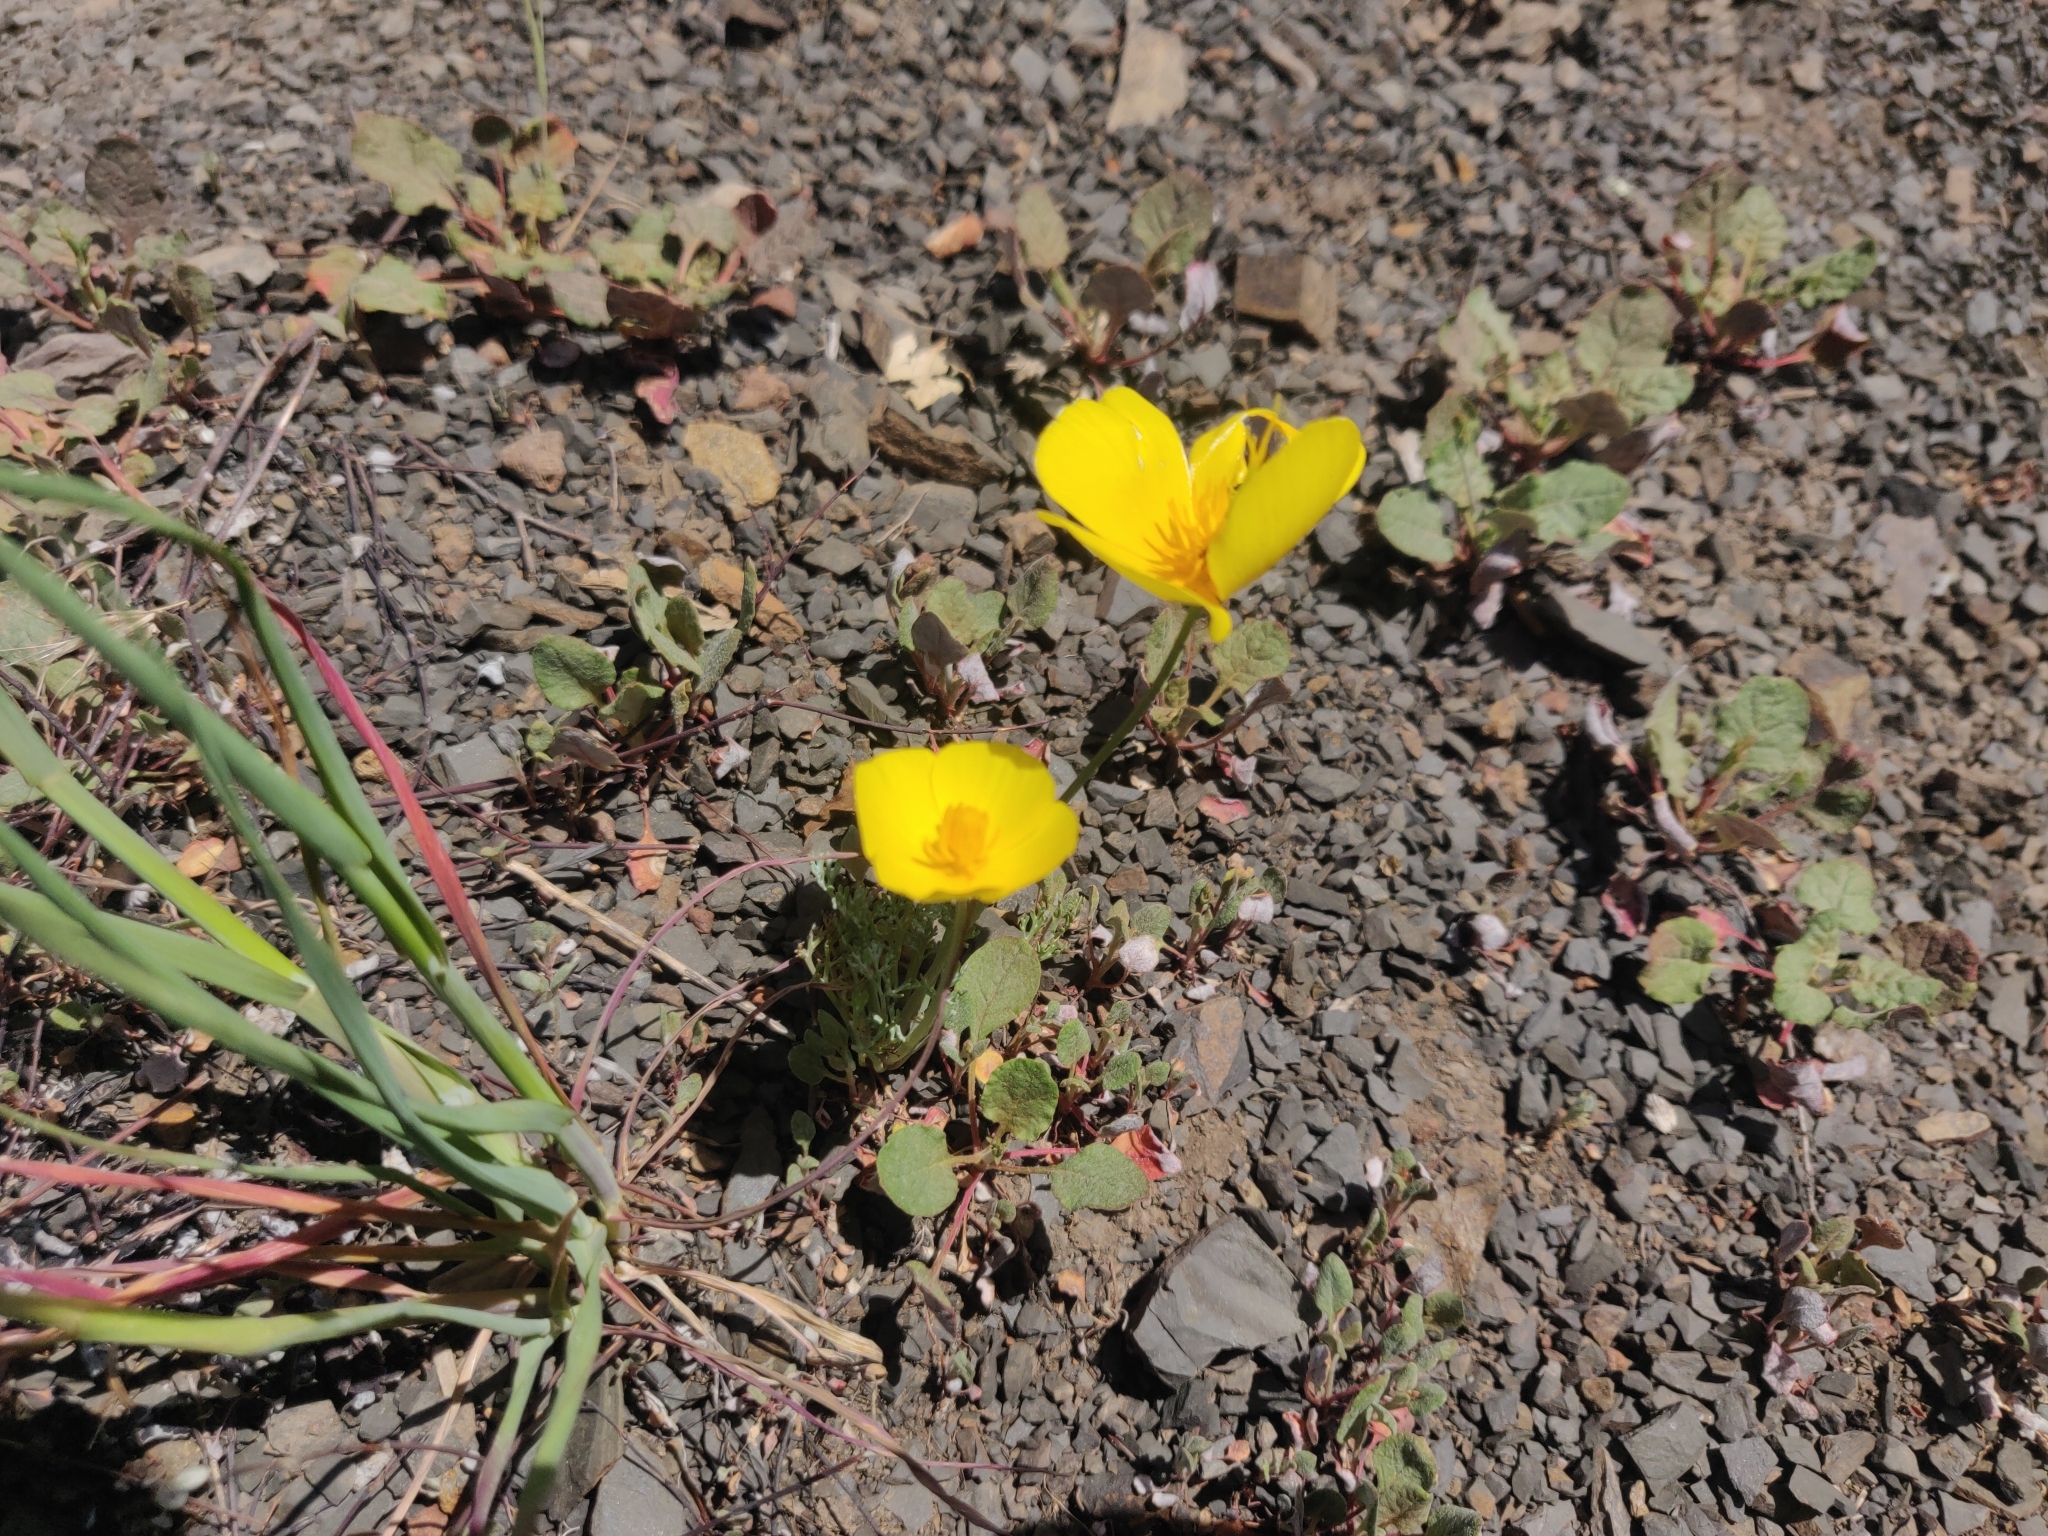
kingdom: Plantae
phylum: Tracheophyta
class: Magnoliopsida
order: Ranunculales
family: Papaveraceae
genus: Eschscholzia
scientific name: Eschscholzia caespitosa
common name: Tufted california-poppy
